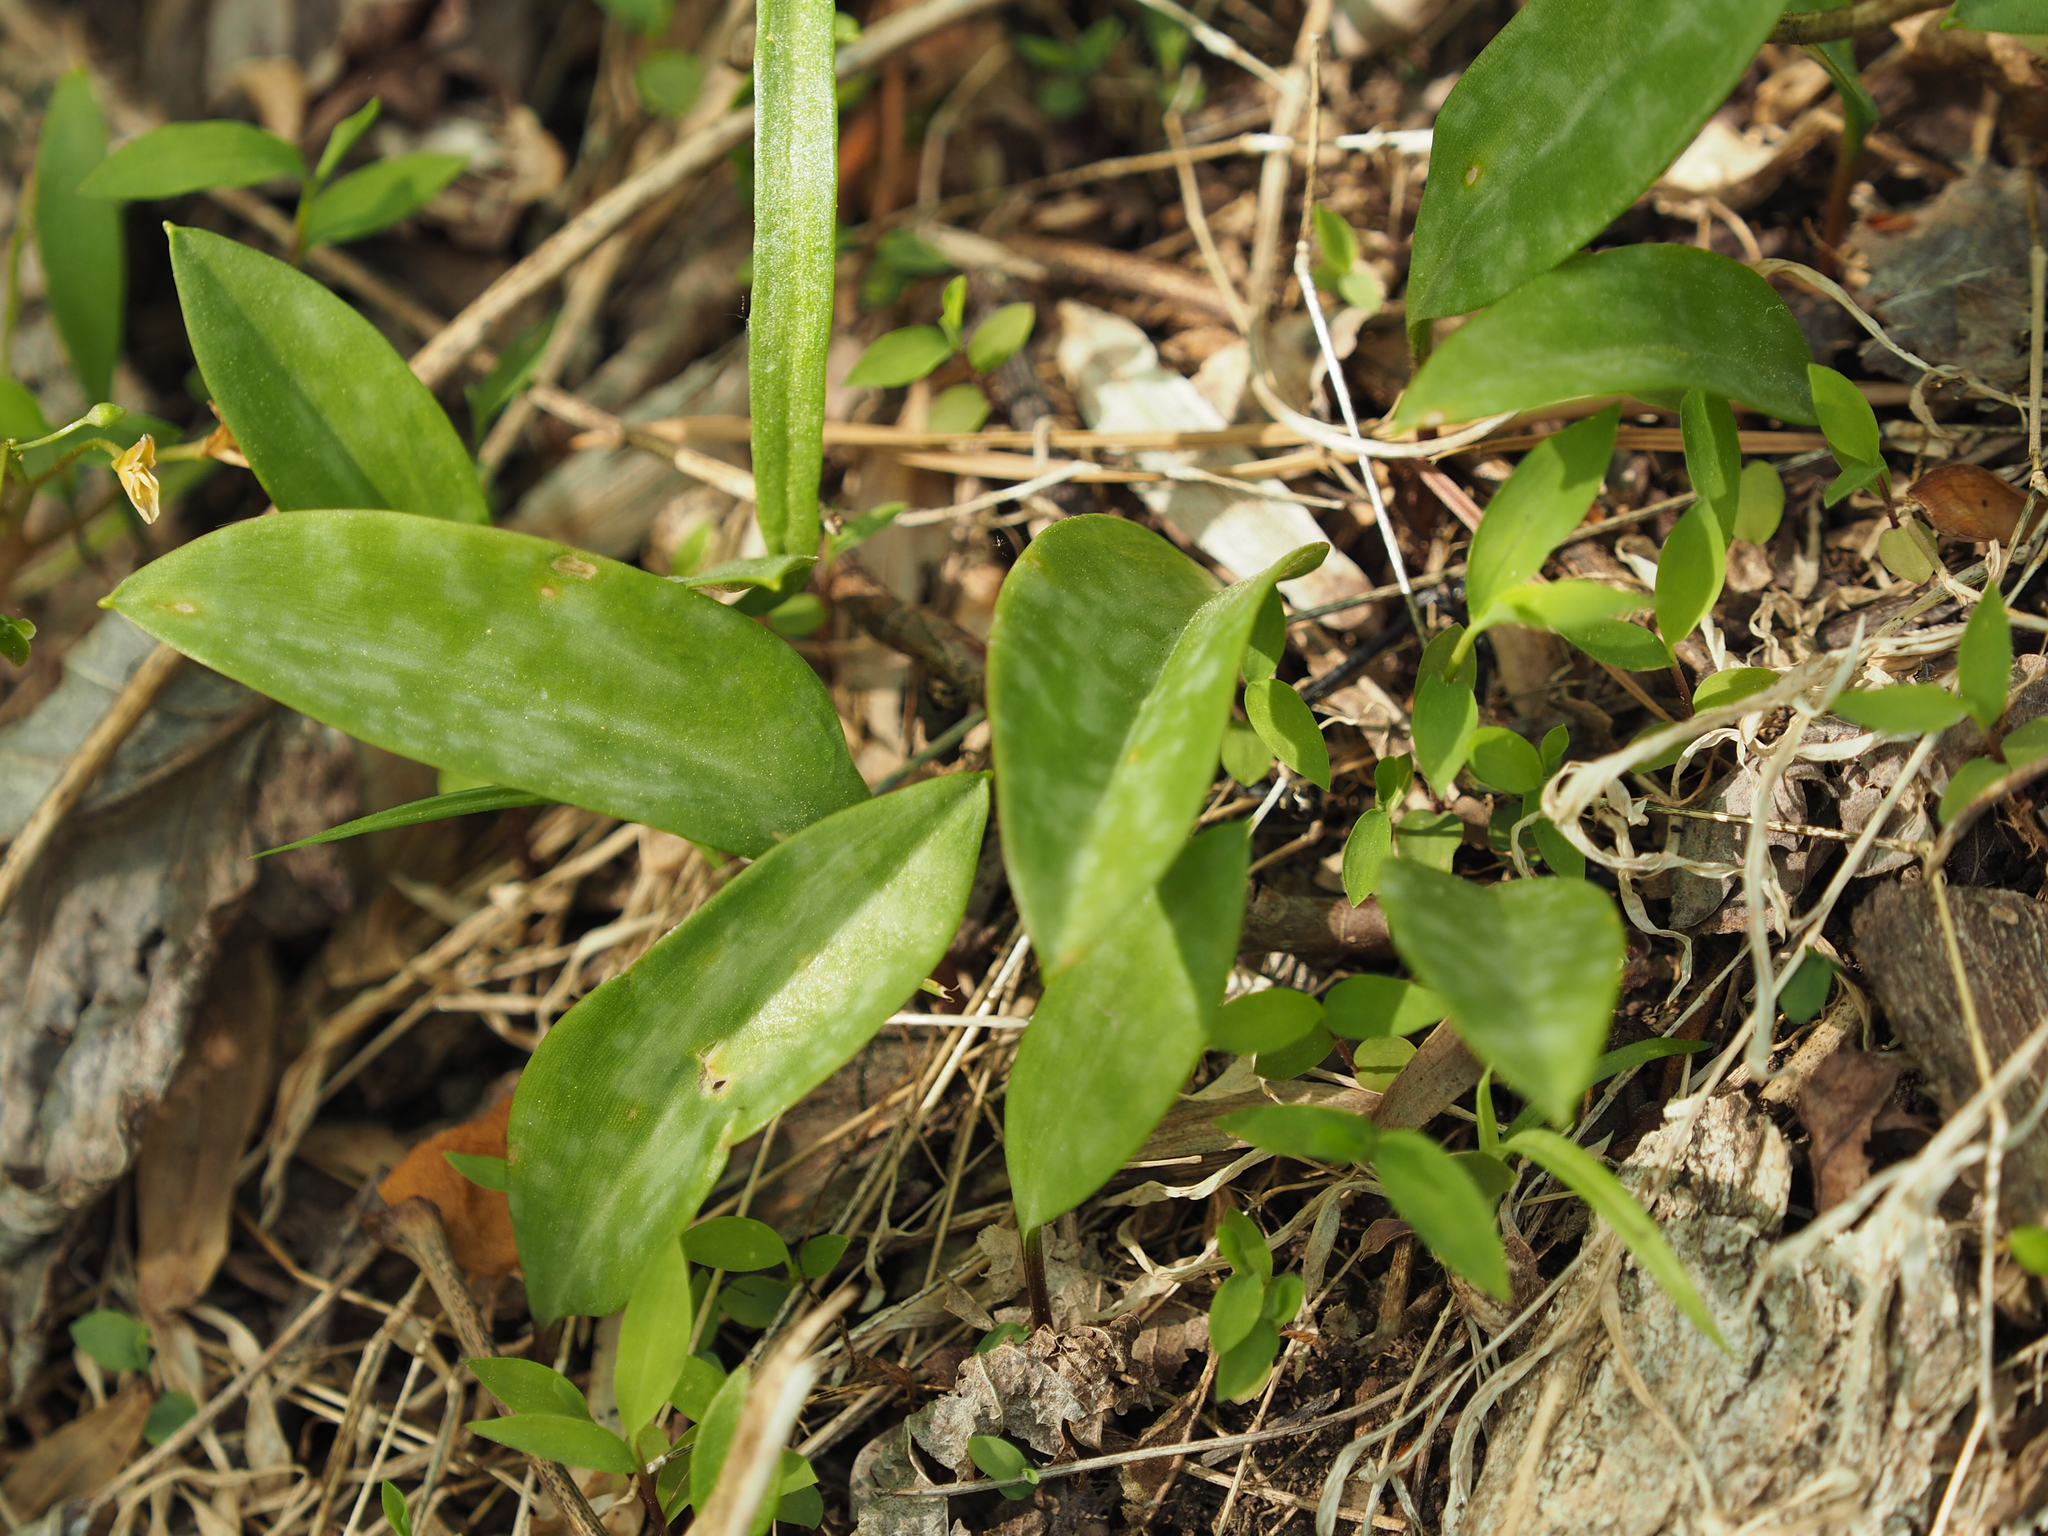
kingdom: Plantae
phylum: Tracheophyta
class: Liliopsida
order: Liliales
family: Liliaceae
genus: Erythronium
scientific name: Erythronium americanum
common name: Yellow adder's-tongue
